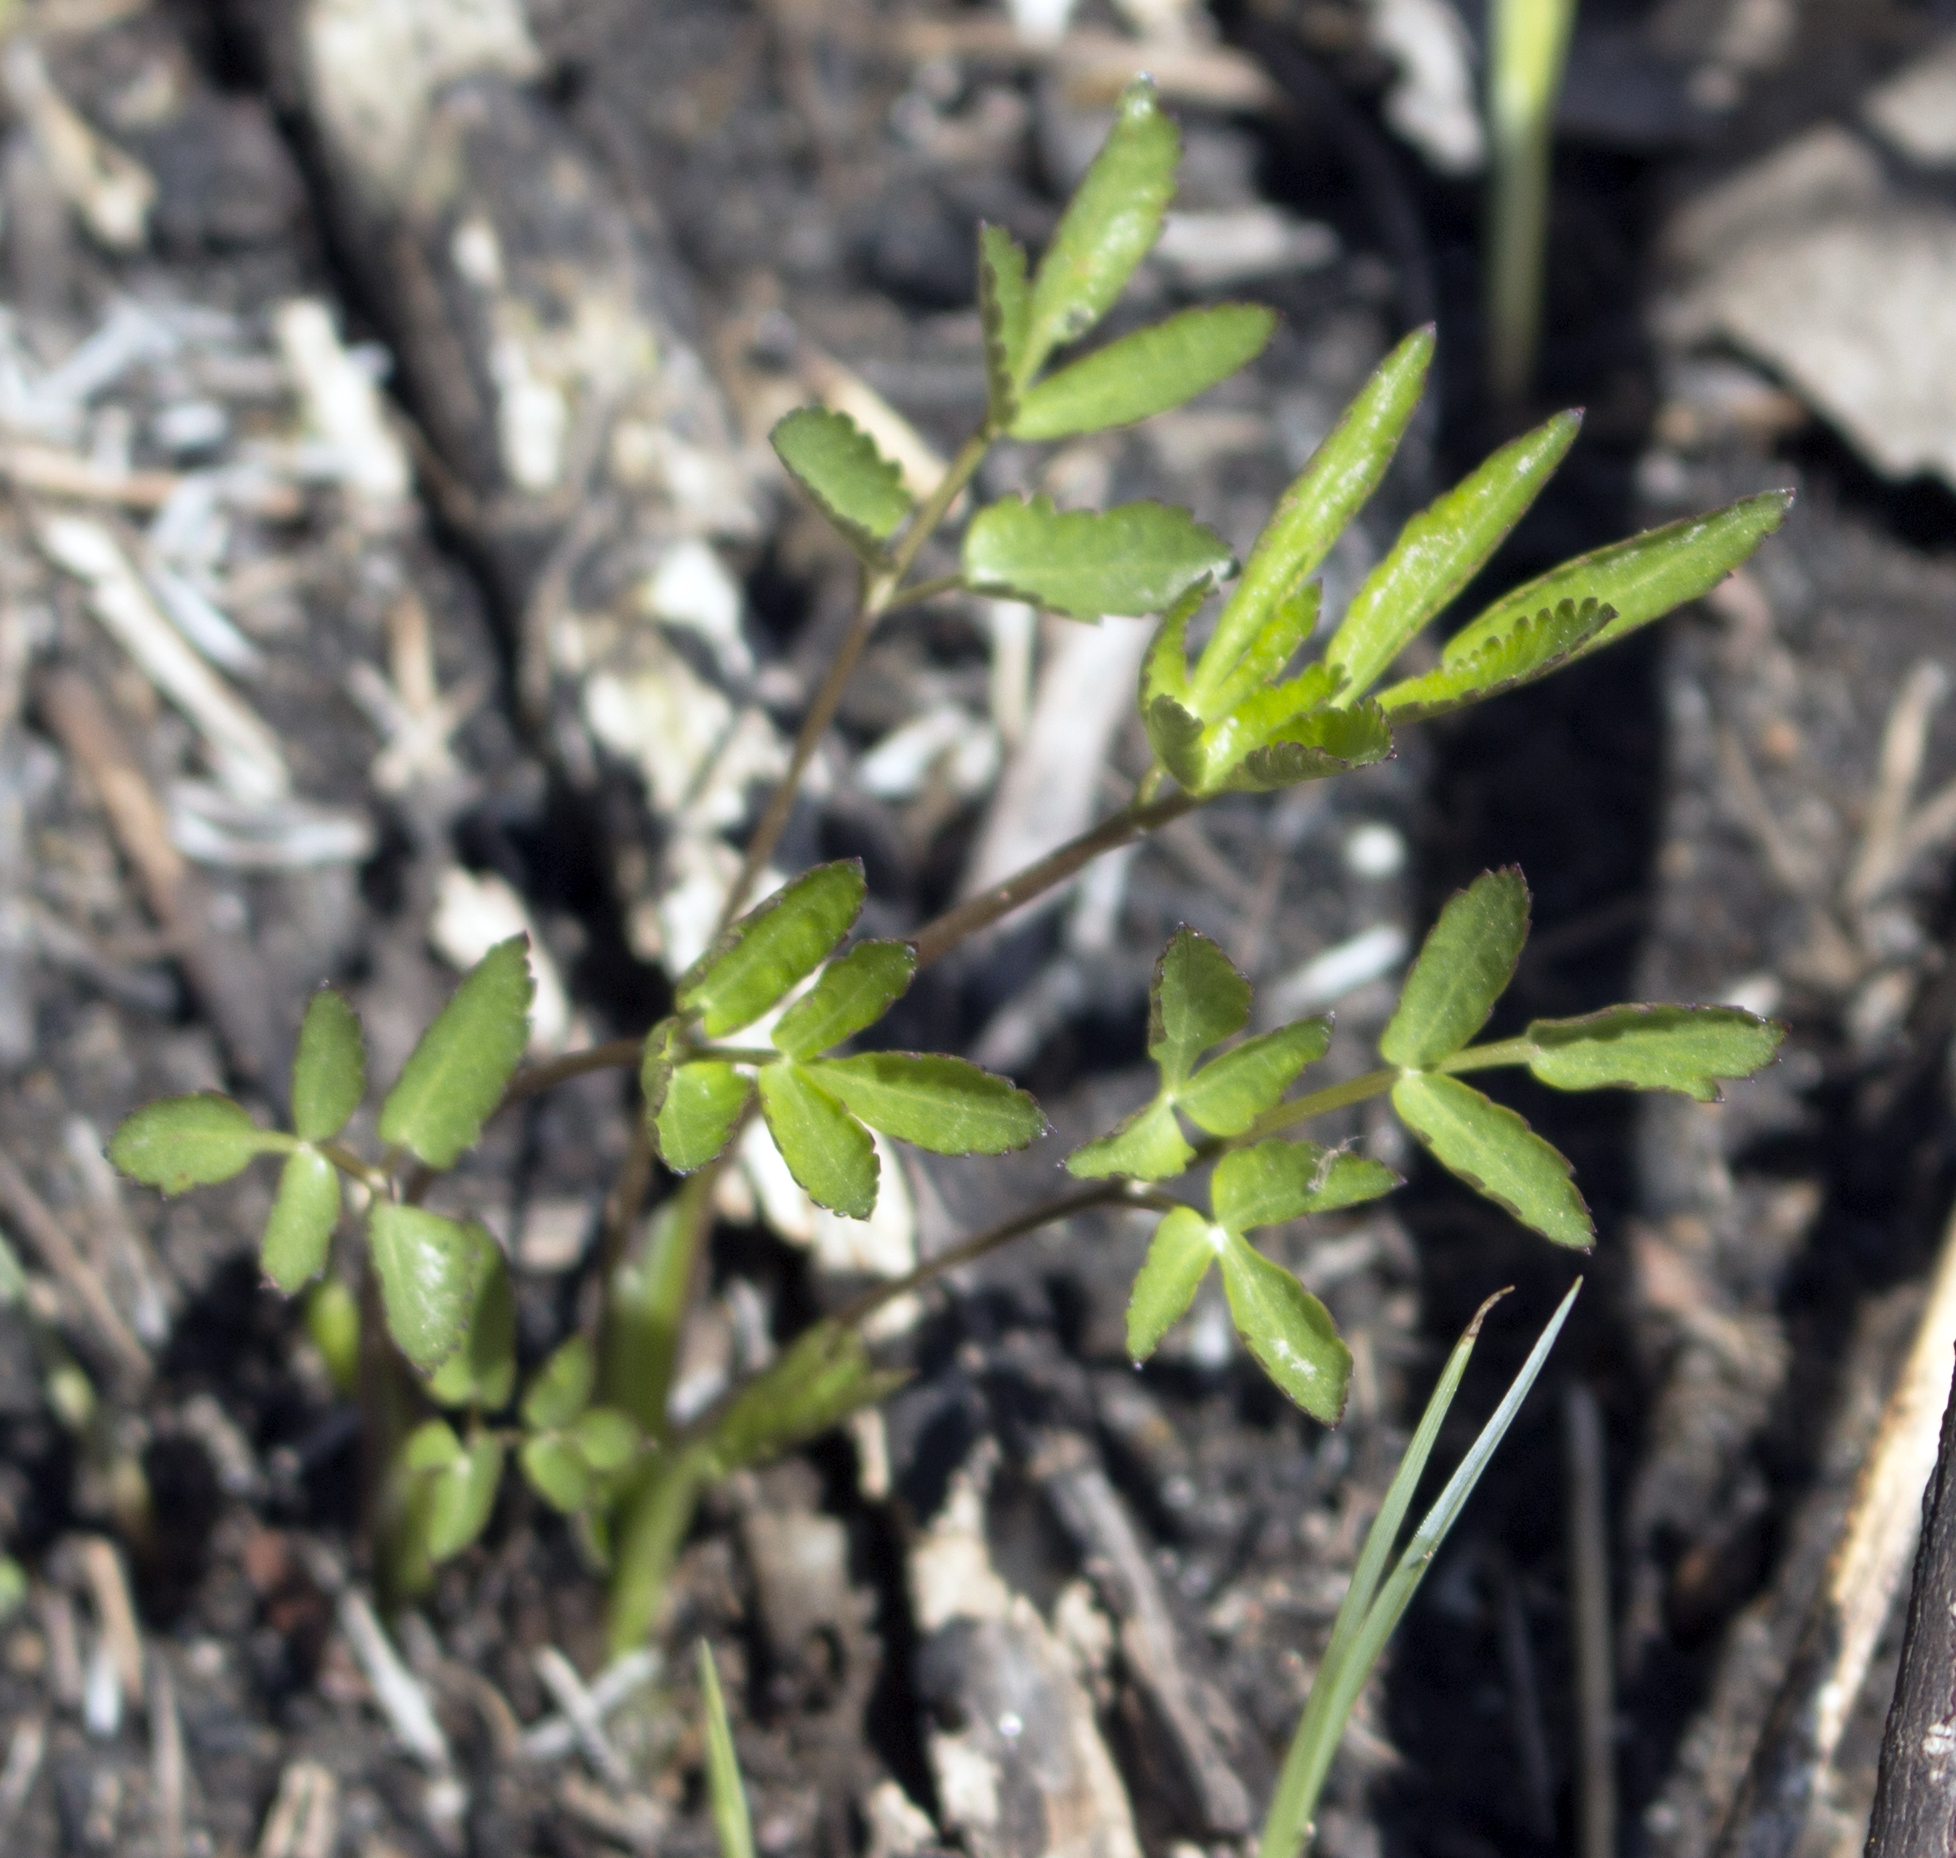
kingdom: Plantae
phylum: Tracheophyta
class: Magnoliopsida
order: Apiales
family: Apiaceae
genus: Zizia
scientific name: Zizia aurea
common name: Golden alexanders
